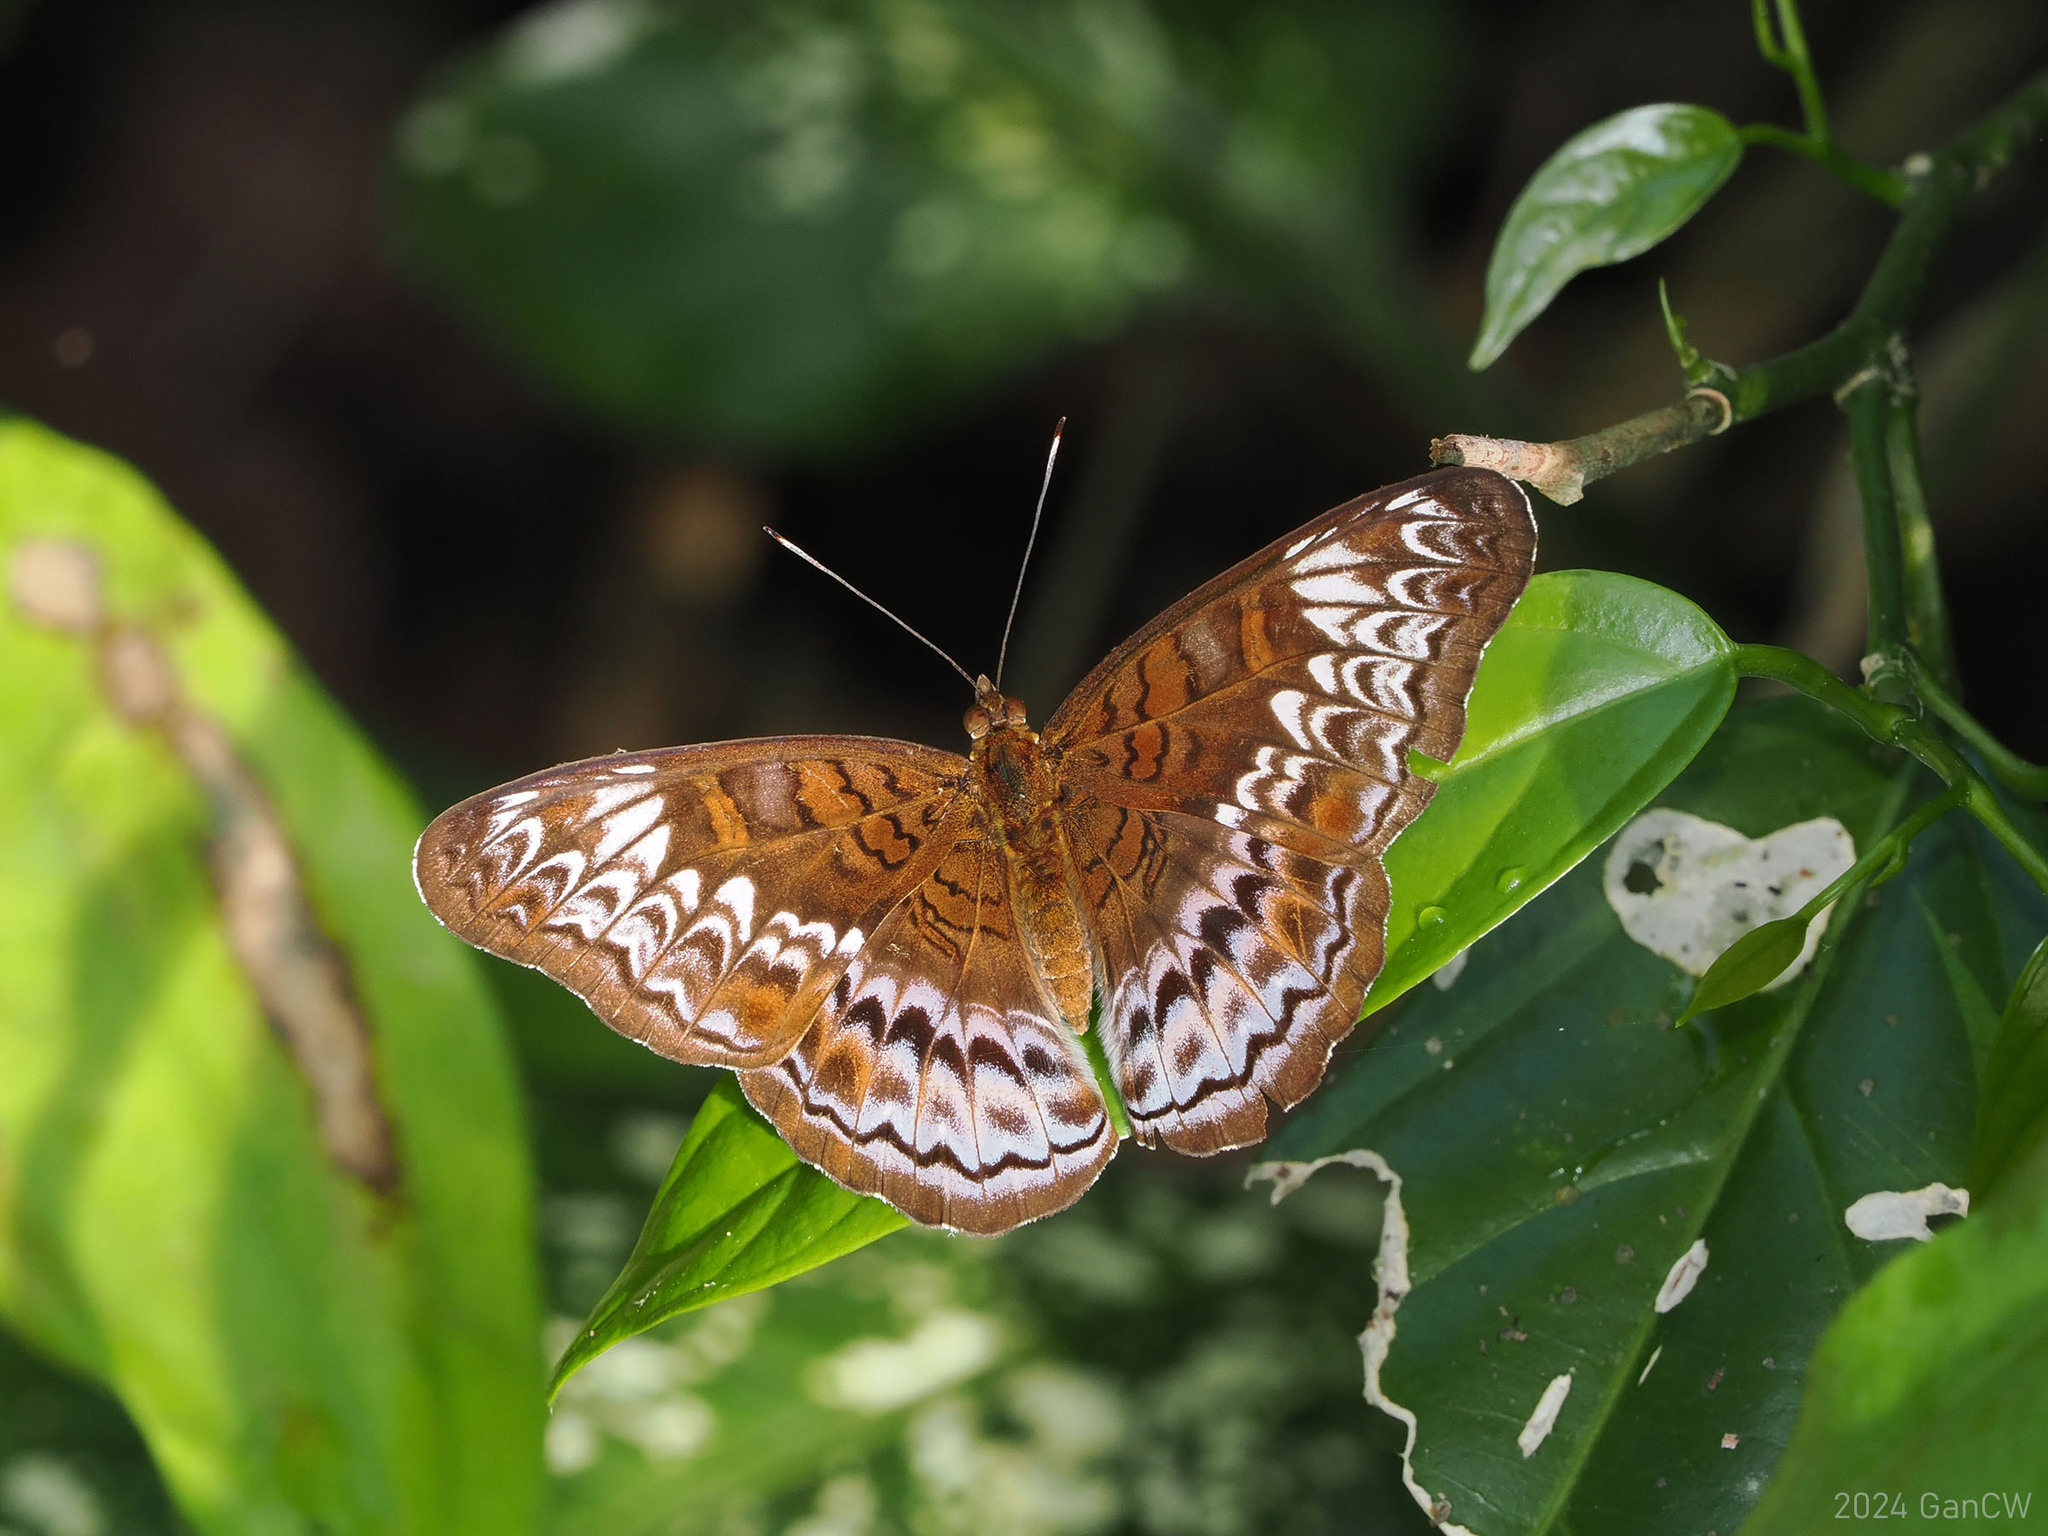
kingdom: Animalia
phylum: Arthropoda
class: Insecta
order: Lepidoptera
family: Nymphalidae
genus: Lebadea
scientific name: Lebadea martha
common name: Knight
